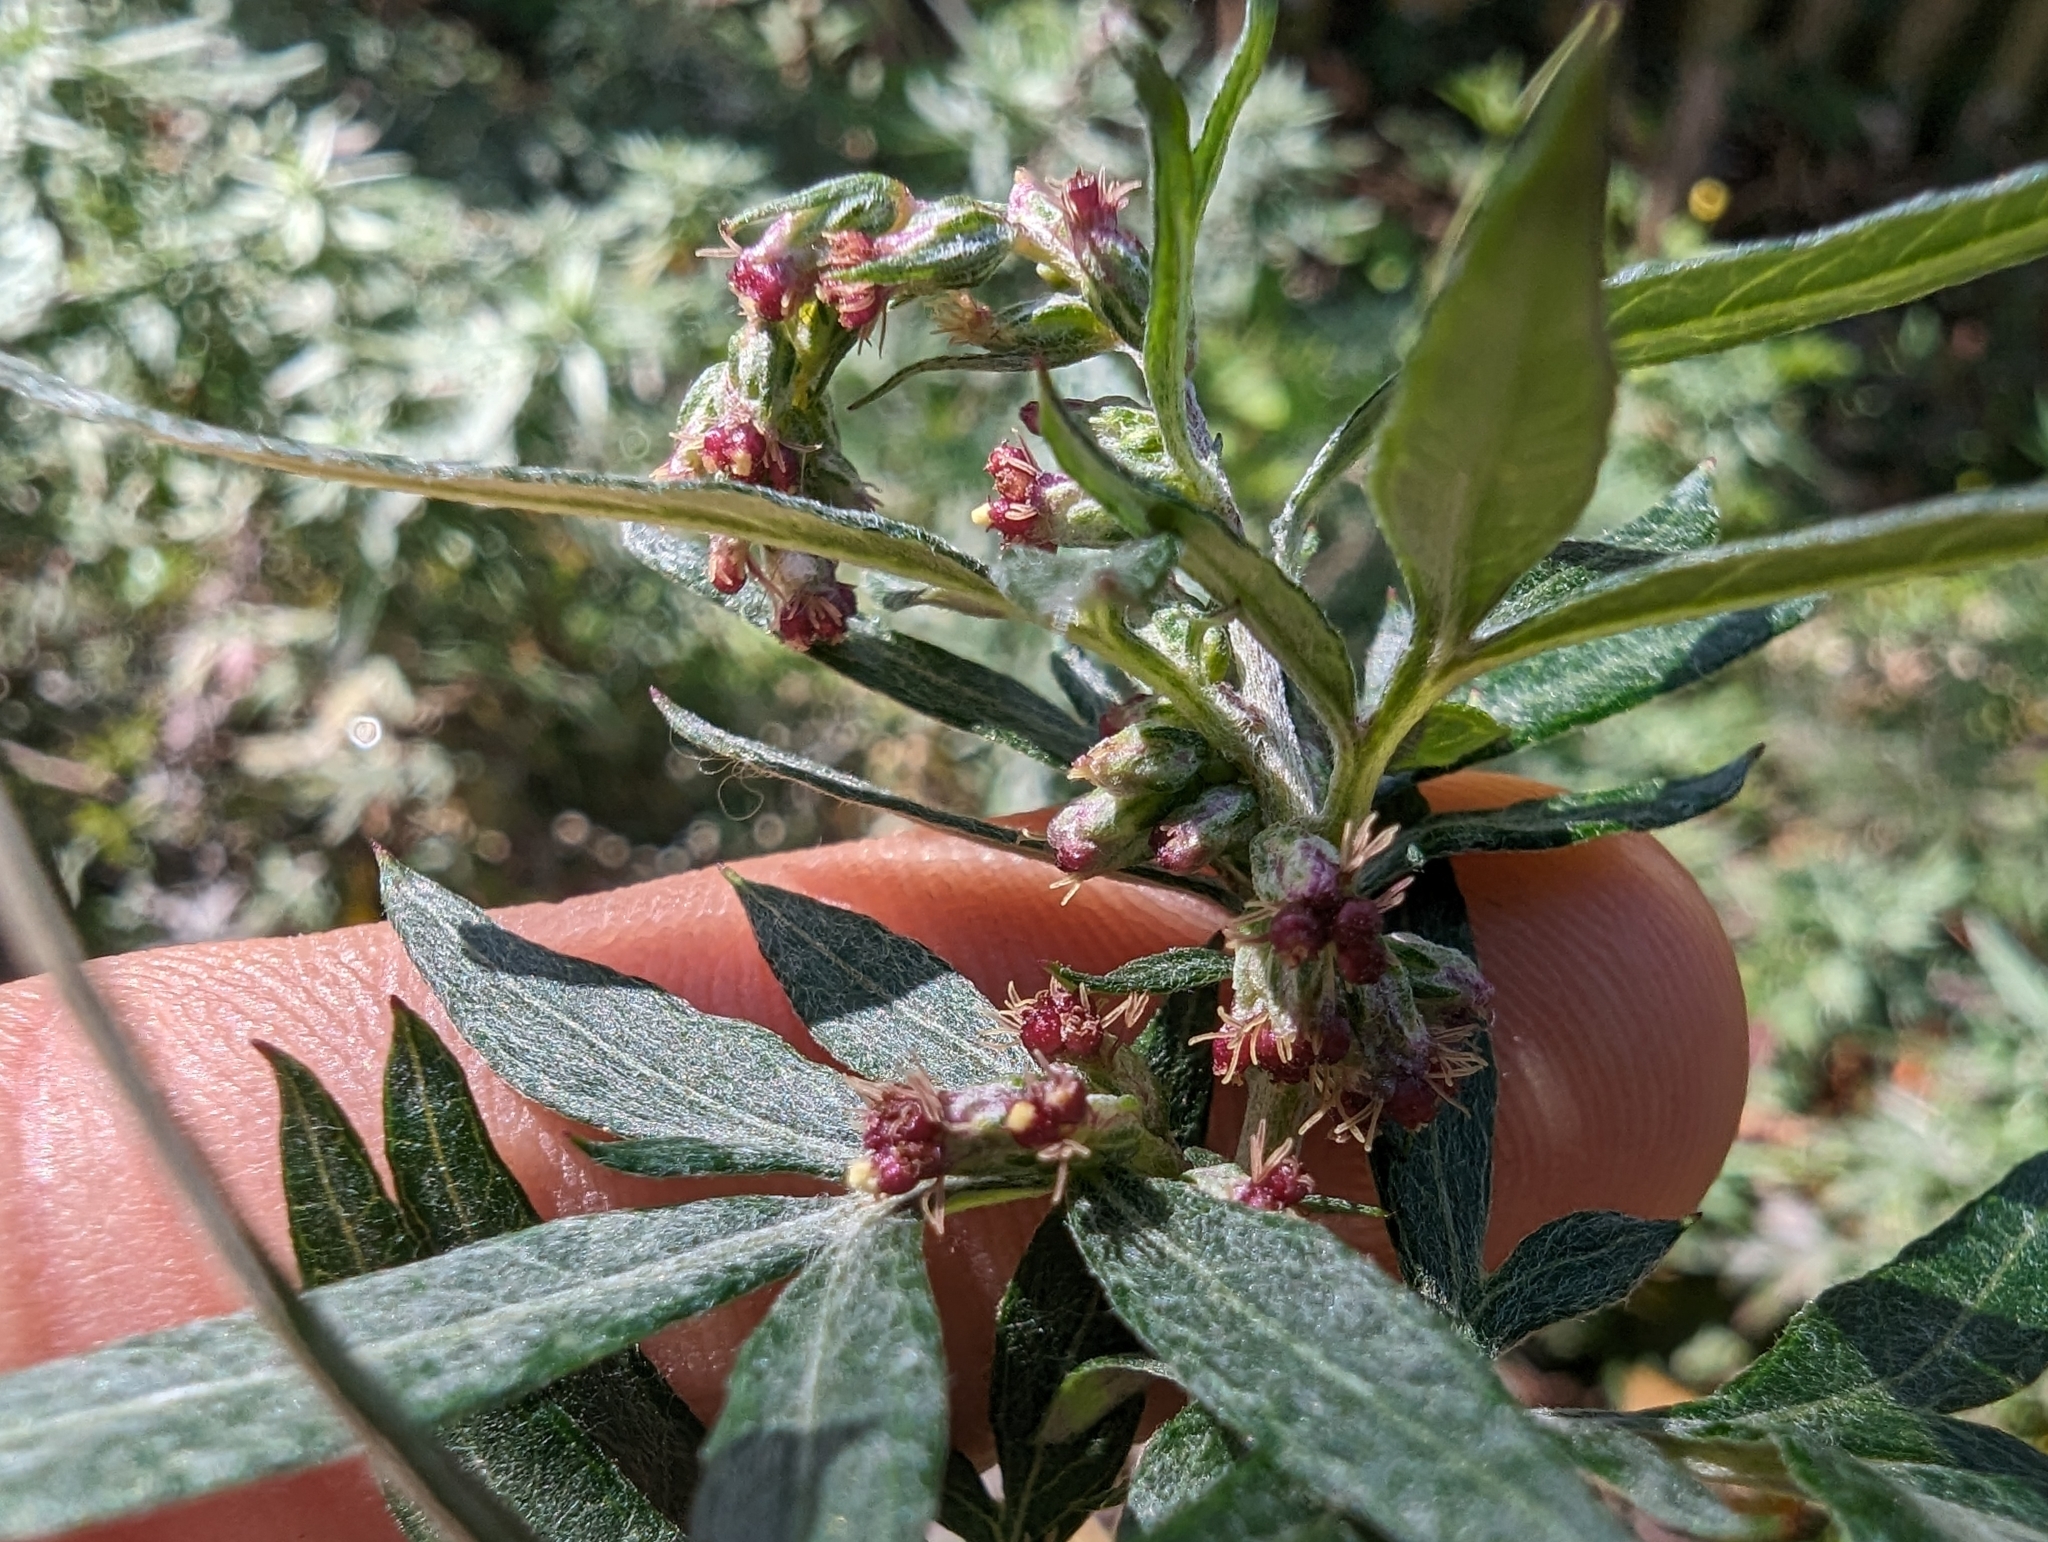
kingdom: Plantae
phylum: Tracheophyta
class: Magnoliopsida
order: Asterales
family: Asteraceae
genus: Artemisia
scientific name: Artemisia indica
